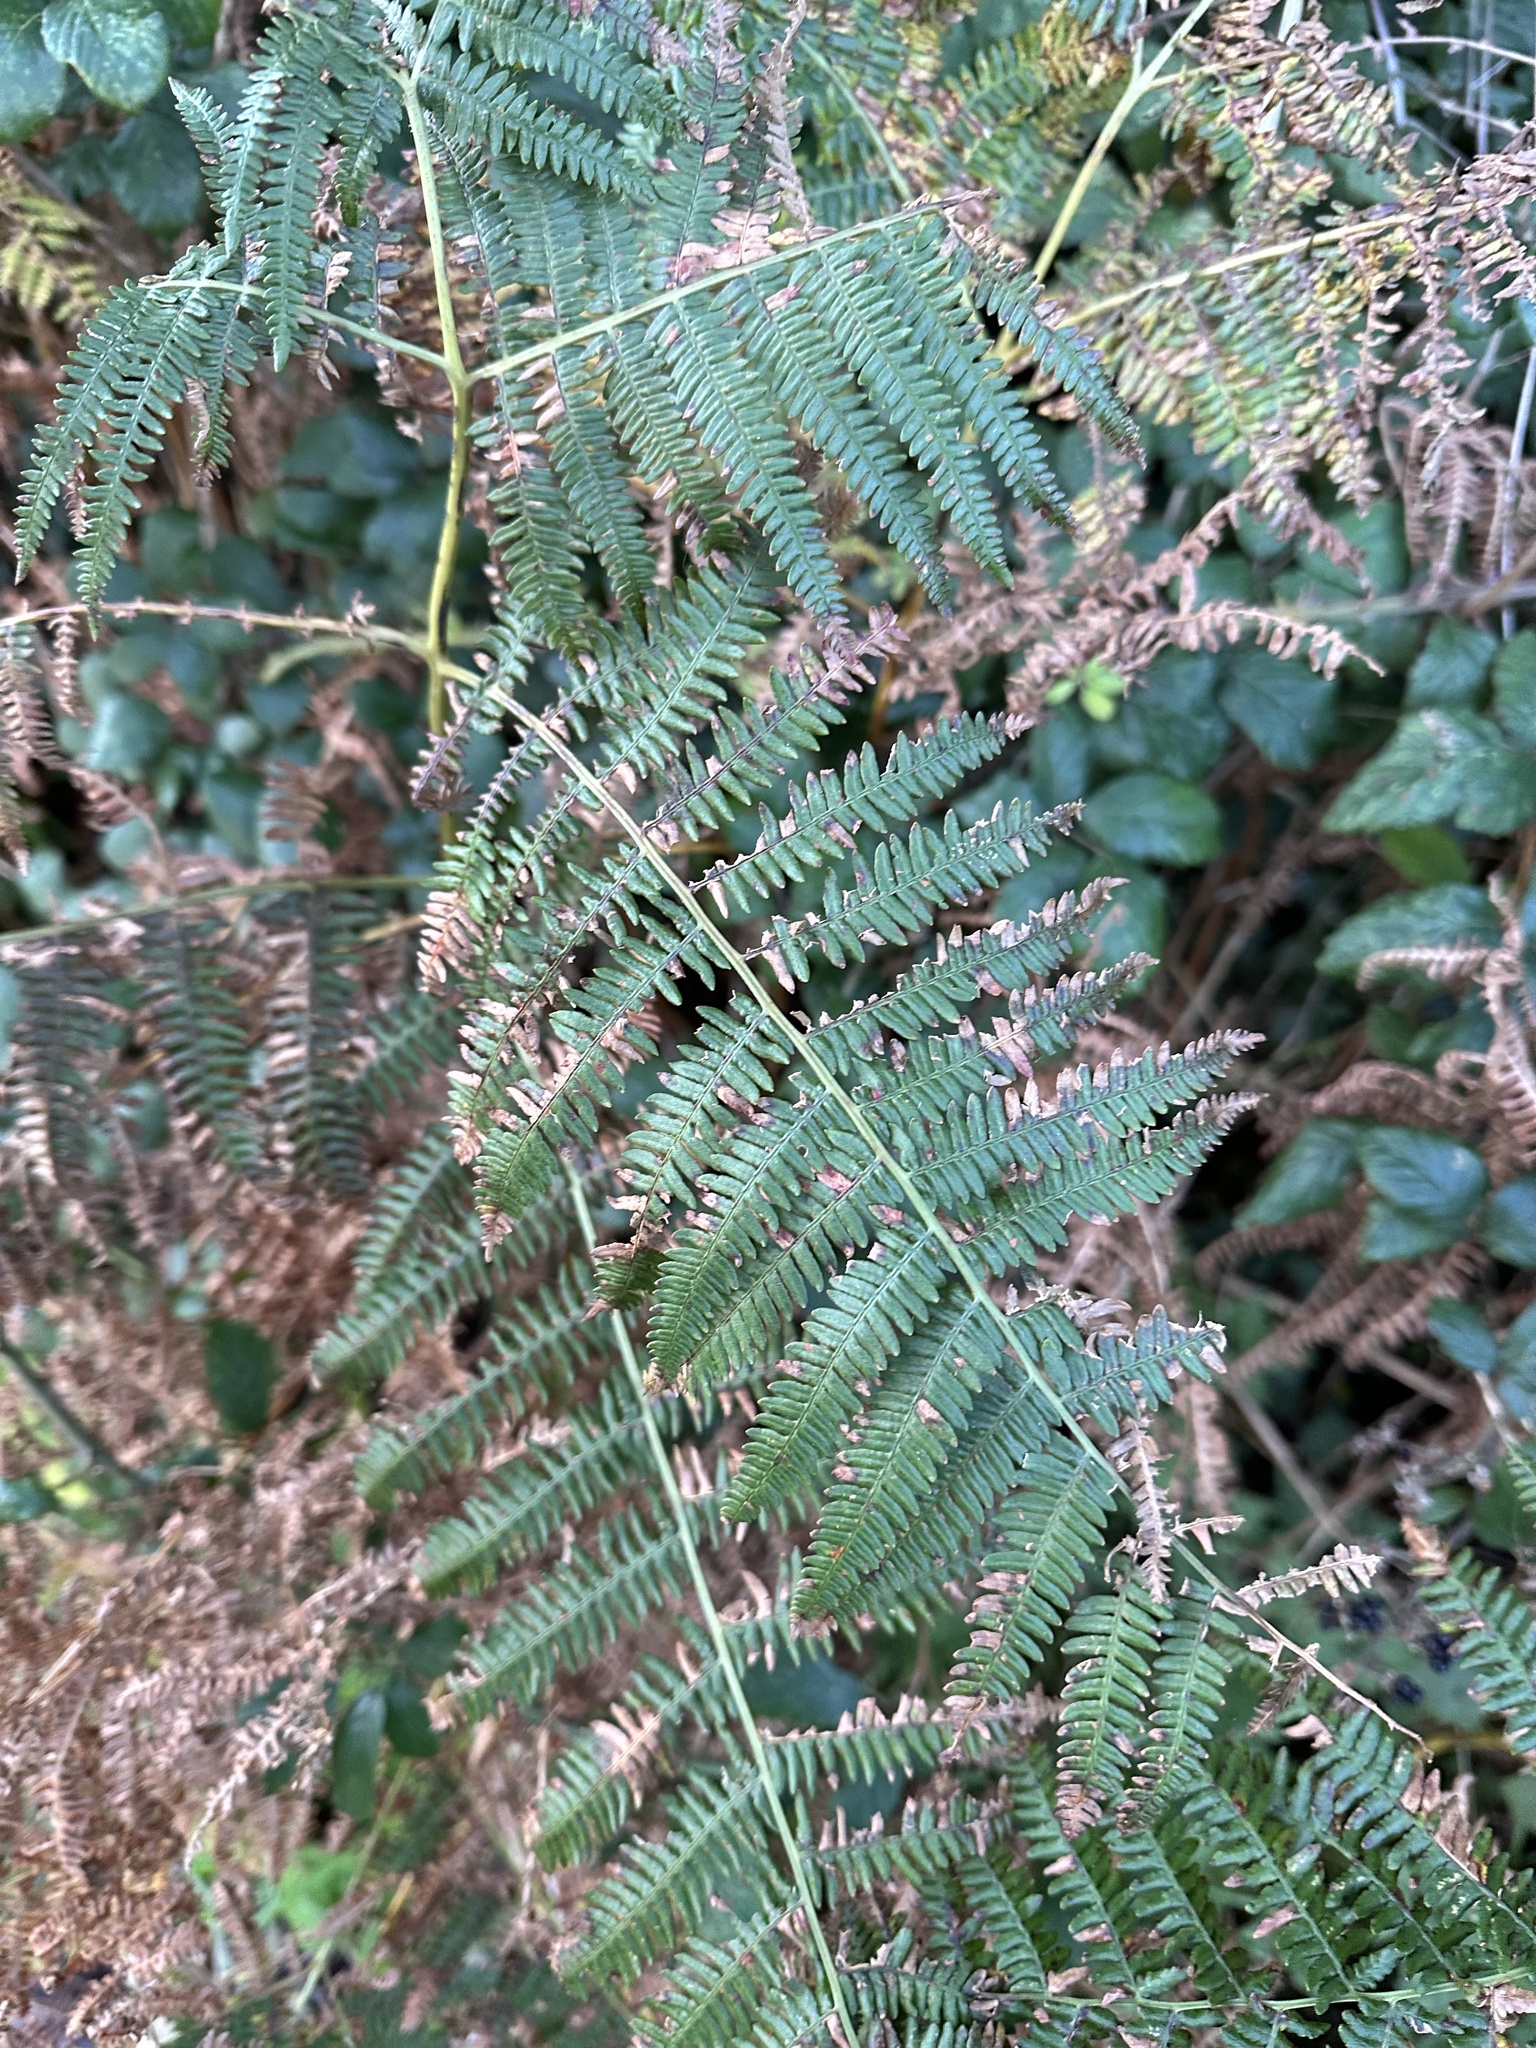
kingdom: Plantae
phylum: Tracheophyta
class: Polypodiopsida
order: Polypodiales
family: Dennstaedtiaceae
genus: Pteridium
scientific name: Pteridium aquilinum
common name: Bracken
